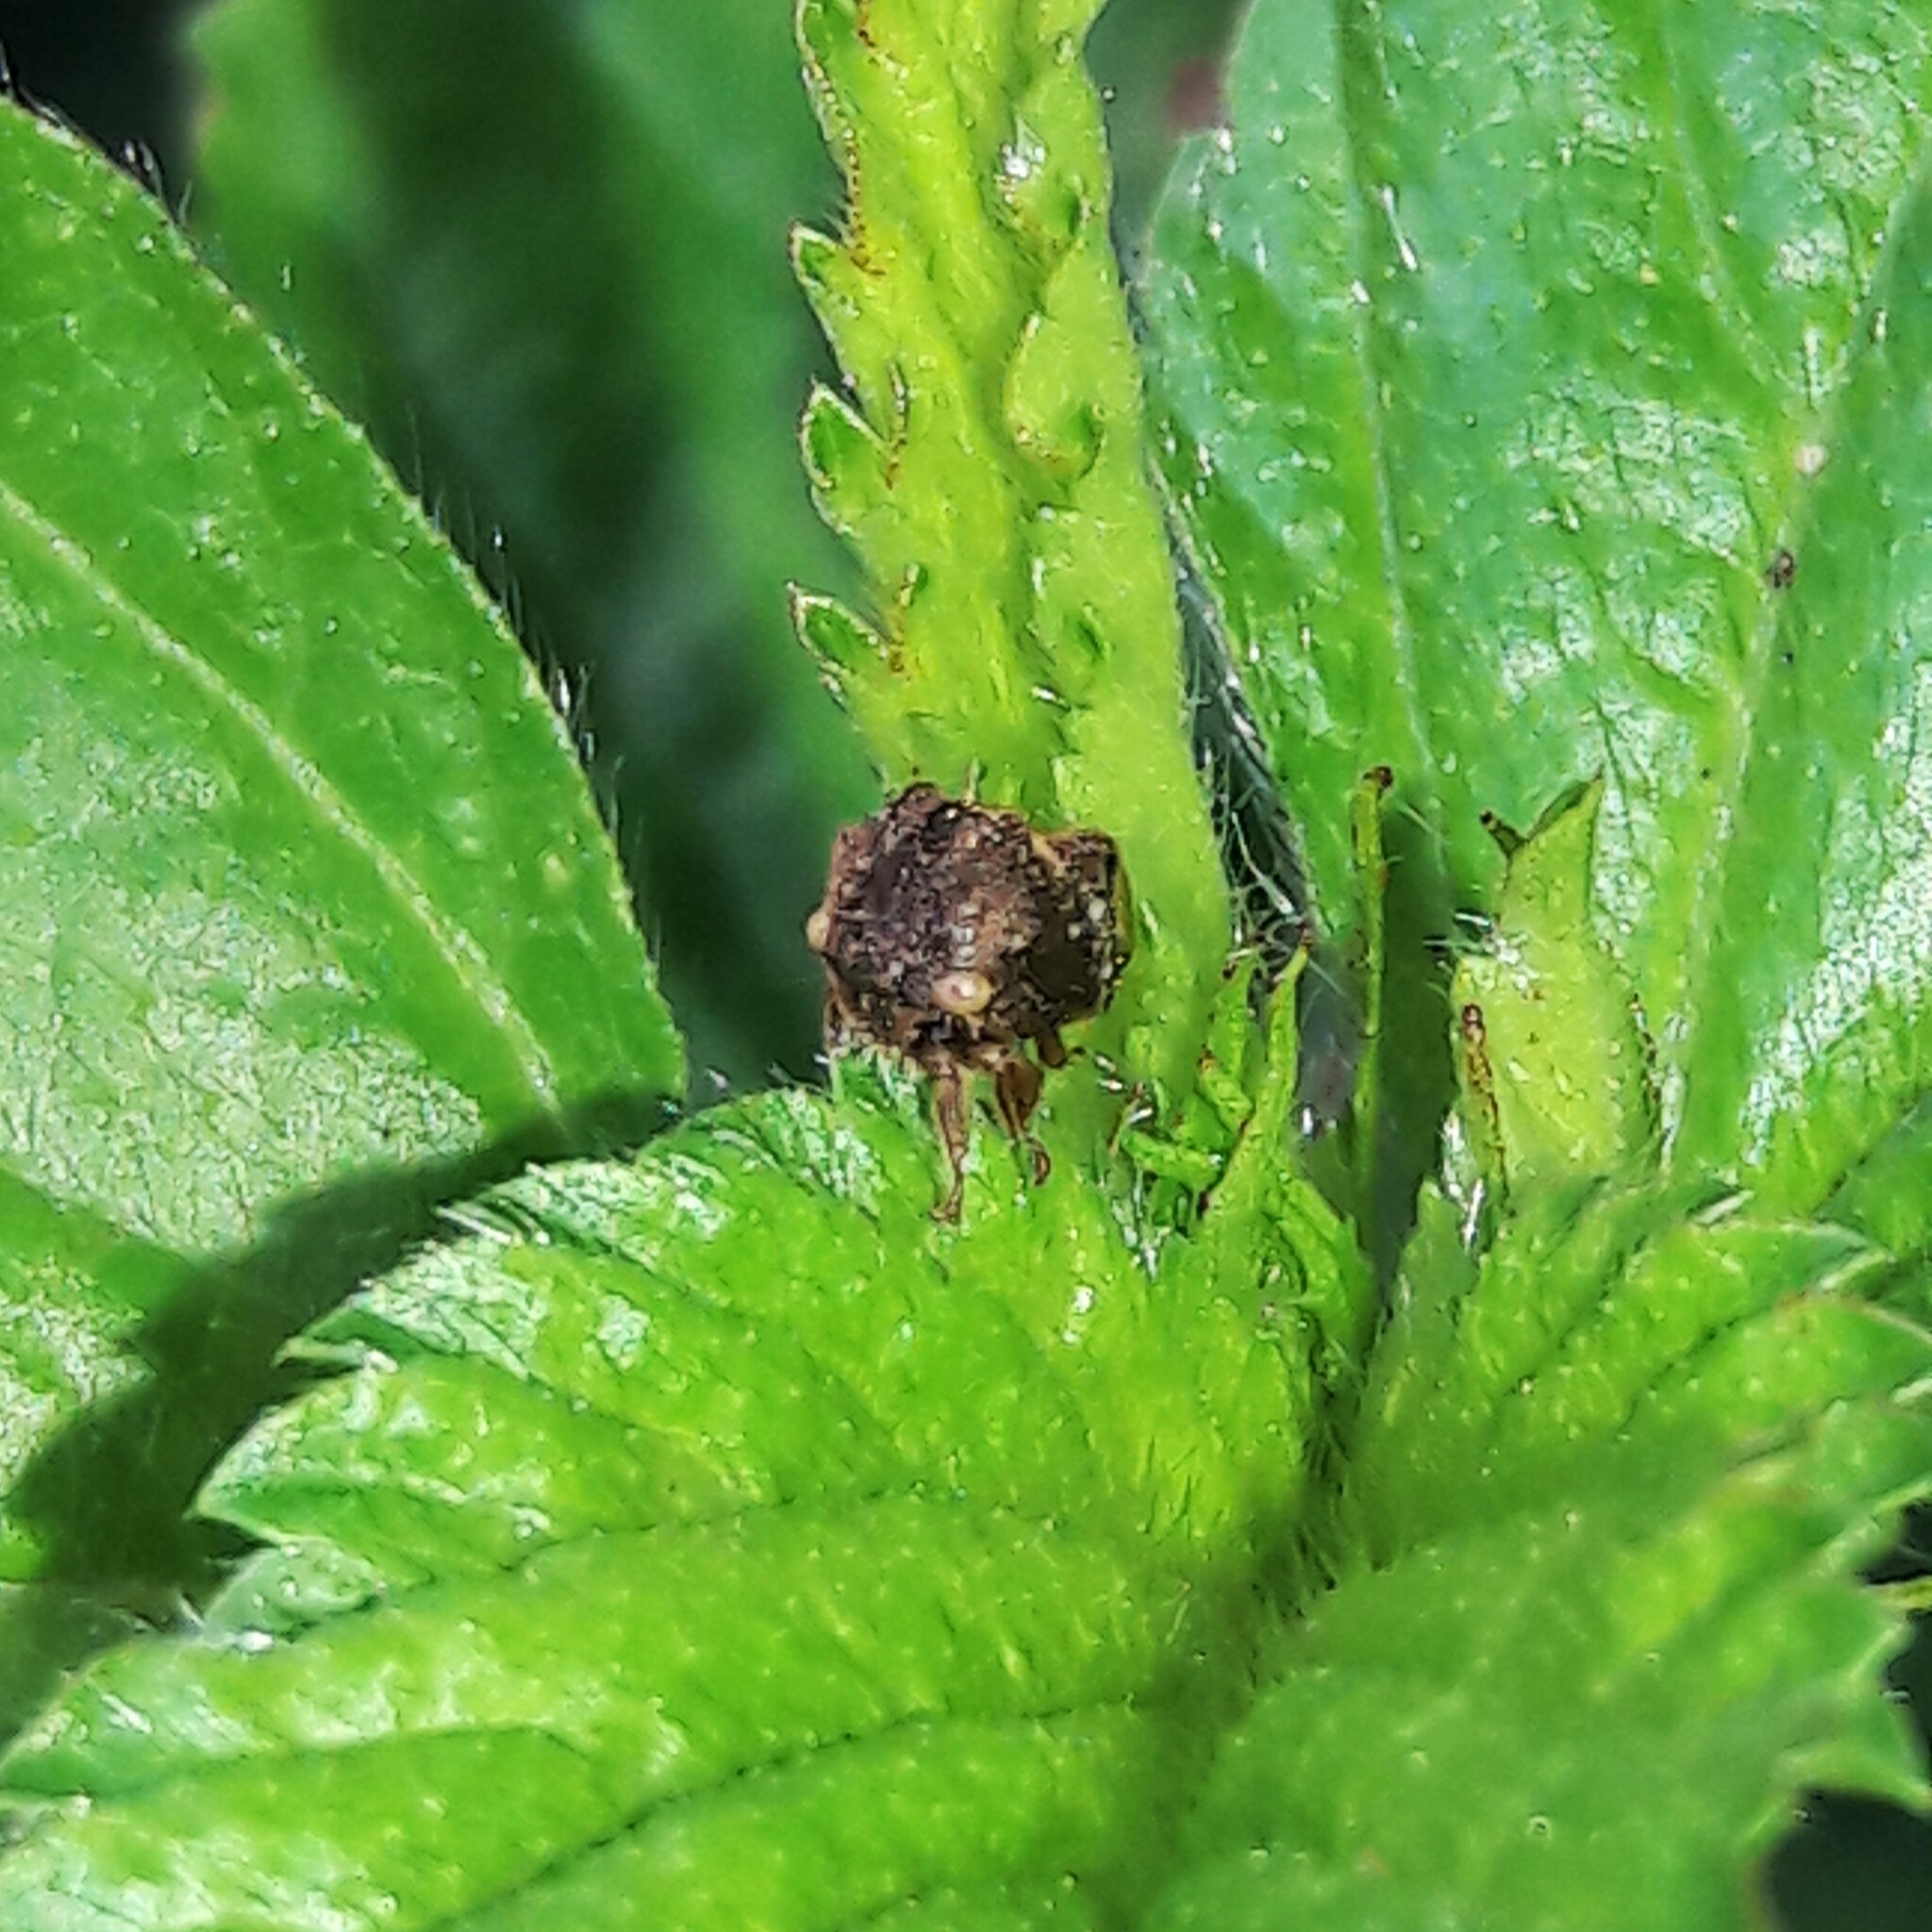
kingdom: Animalia
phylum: Arthropoda
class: Insecta
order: Hemiptera
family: Membracidae
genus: Talipes
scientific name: Talipes
